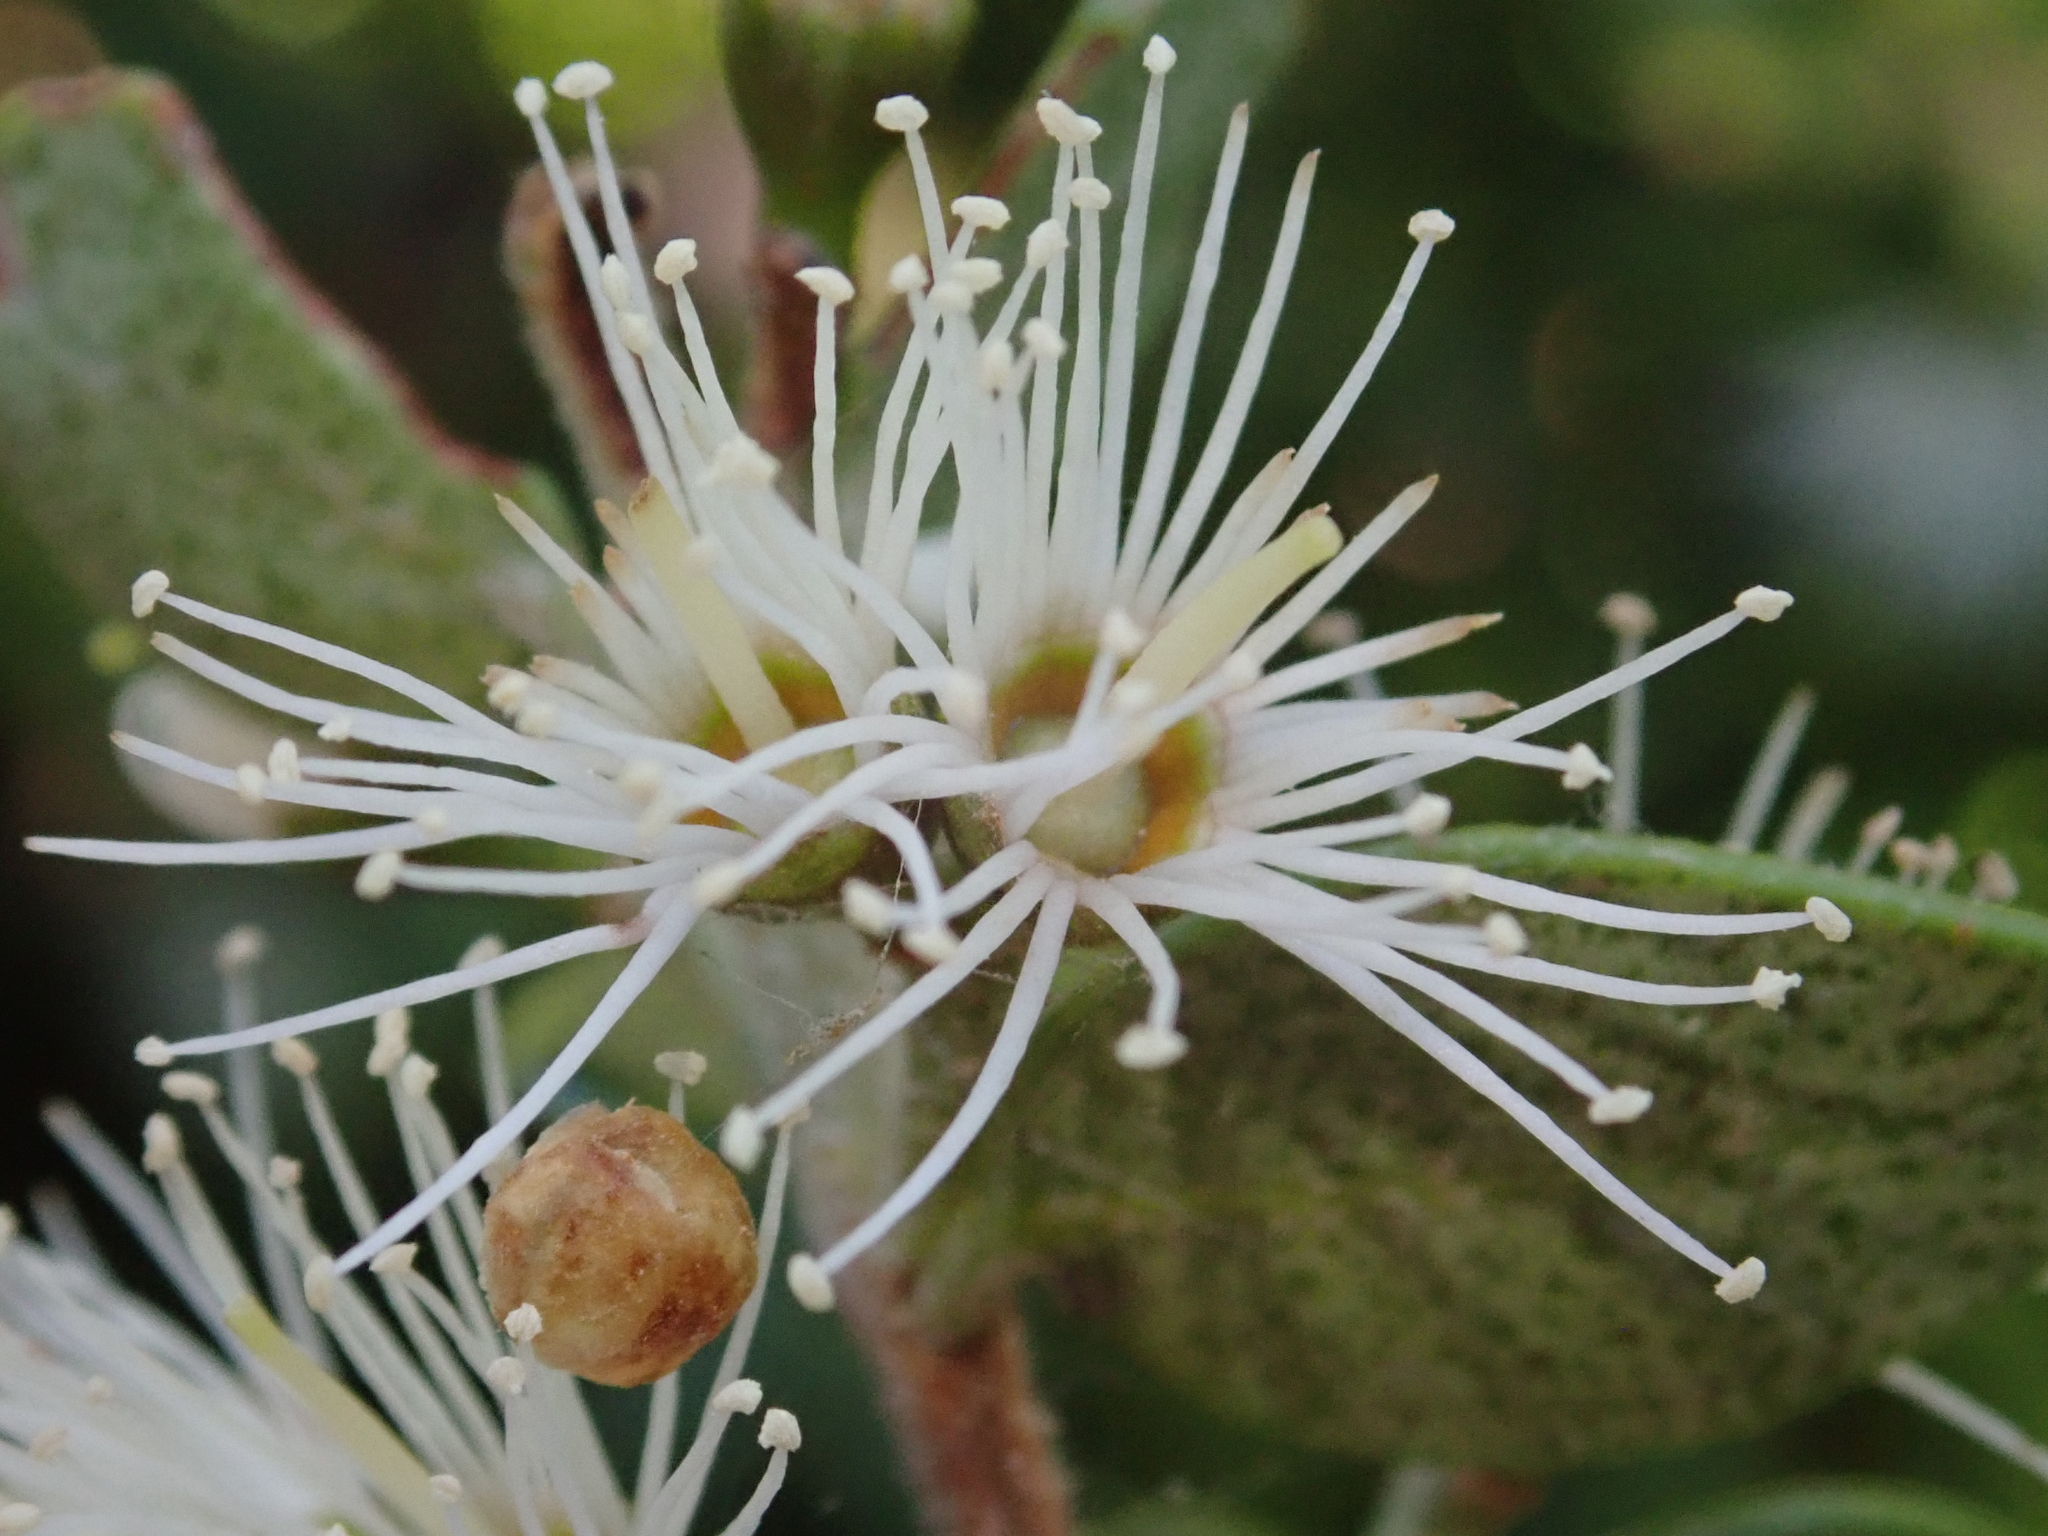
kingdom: Plantae
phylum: Tracheophyta
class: Magnoliopsida
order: Myrtales
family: Myrtaceae
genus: Metrosideros
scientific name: Metrosideros perforata
